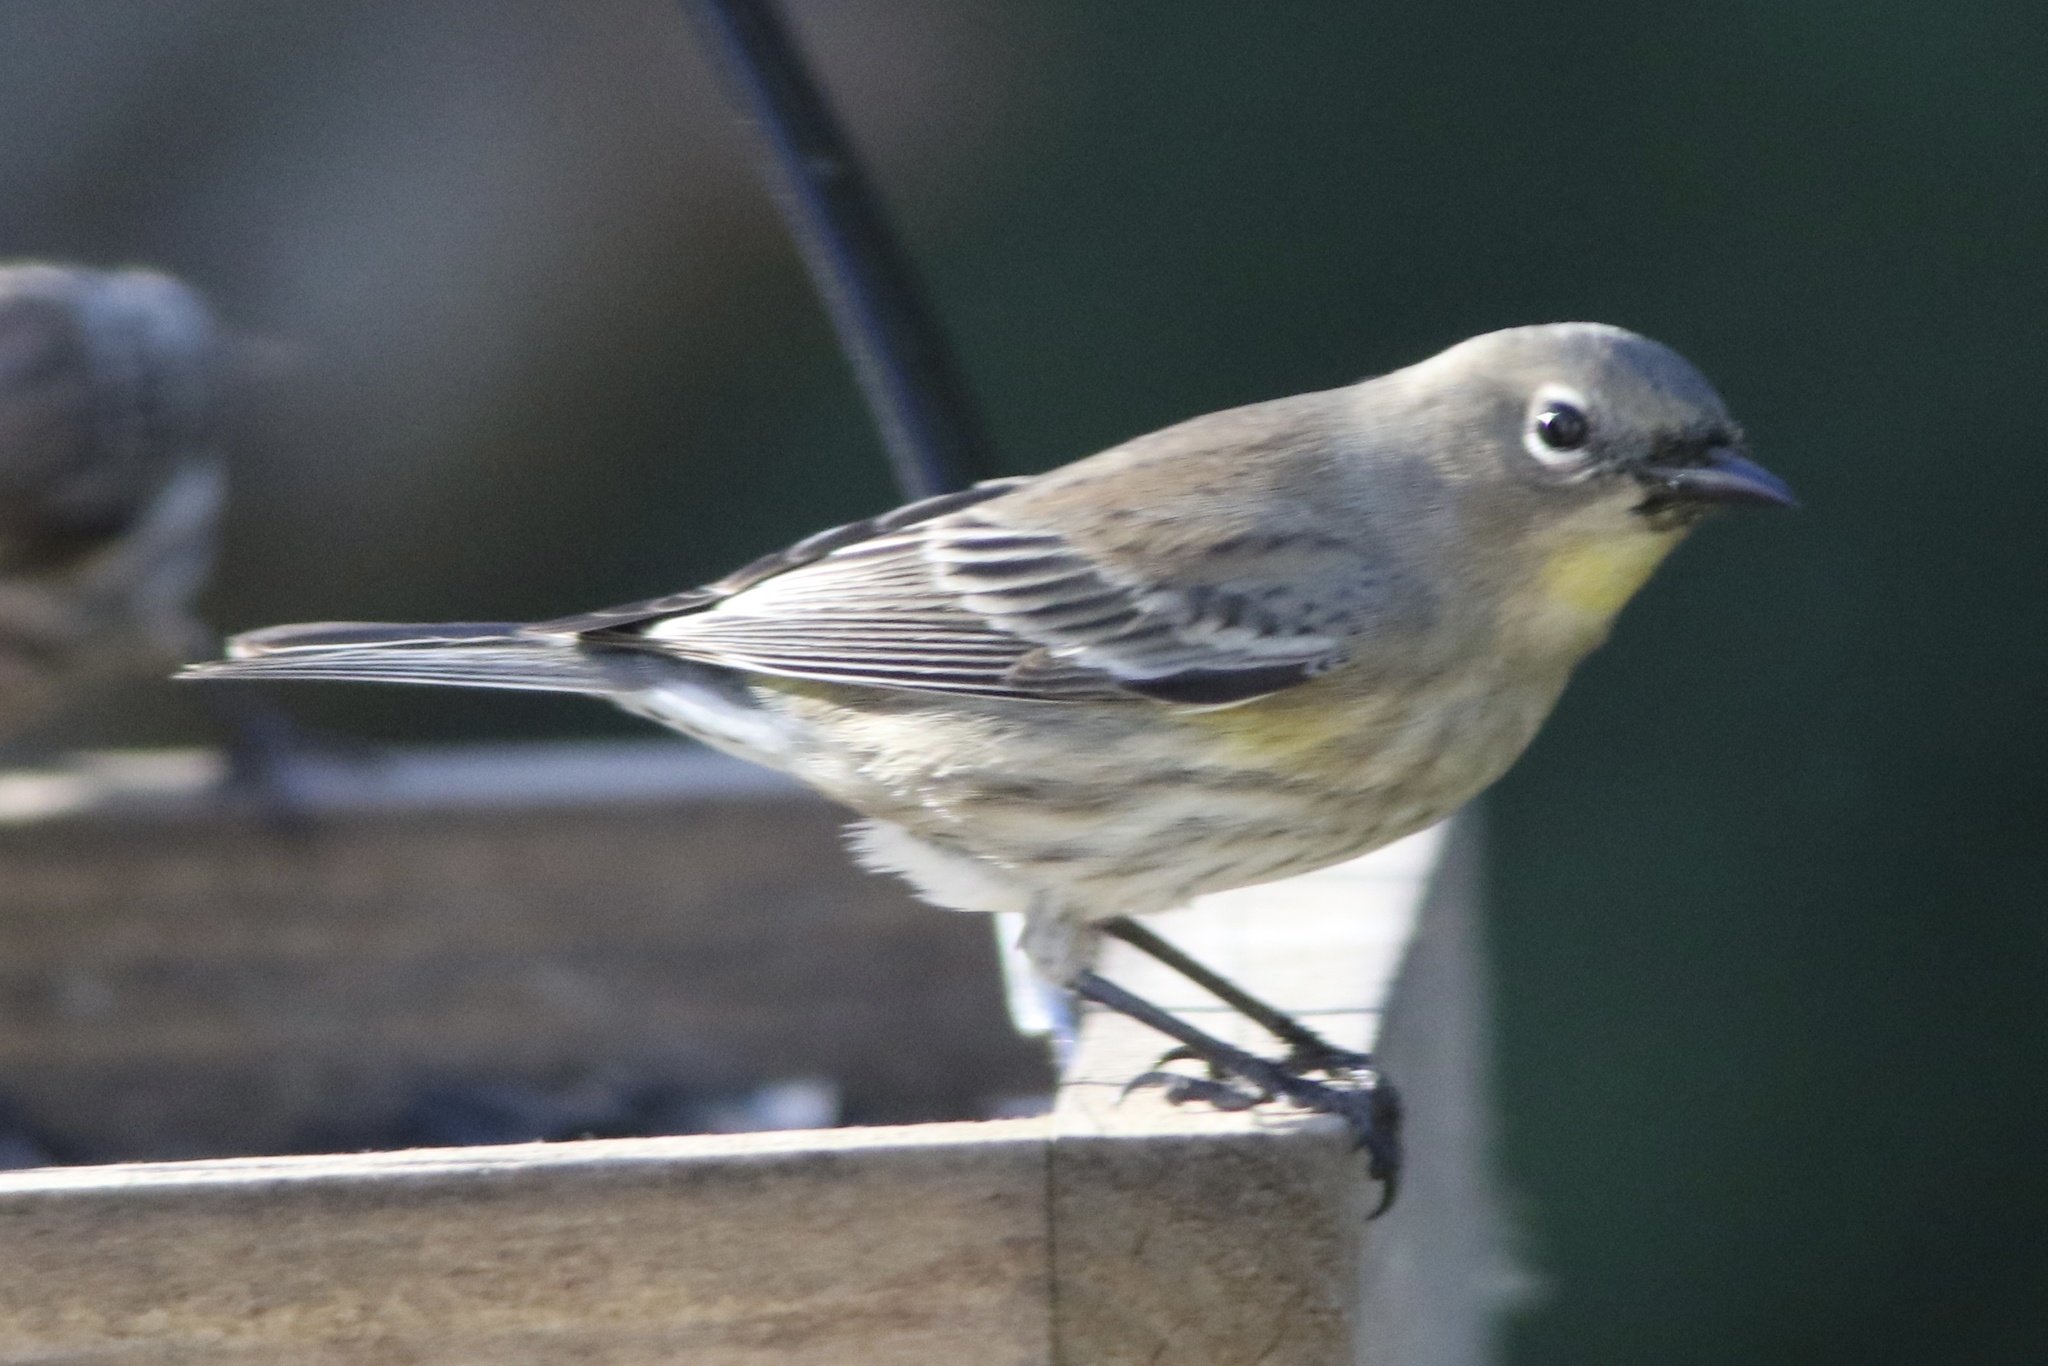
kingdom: Animalia
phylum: Chordata
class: Aves
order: Passeriformes
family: Parulidae
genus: Setophaga
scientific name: Setophaga coronata
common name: Myrtle warbler
